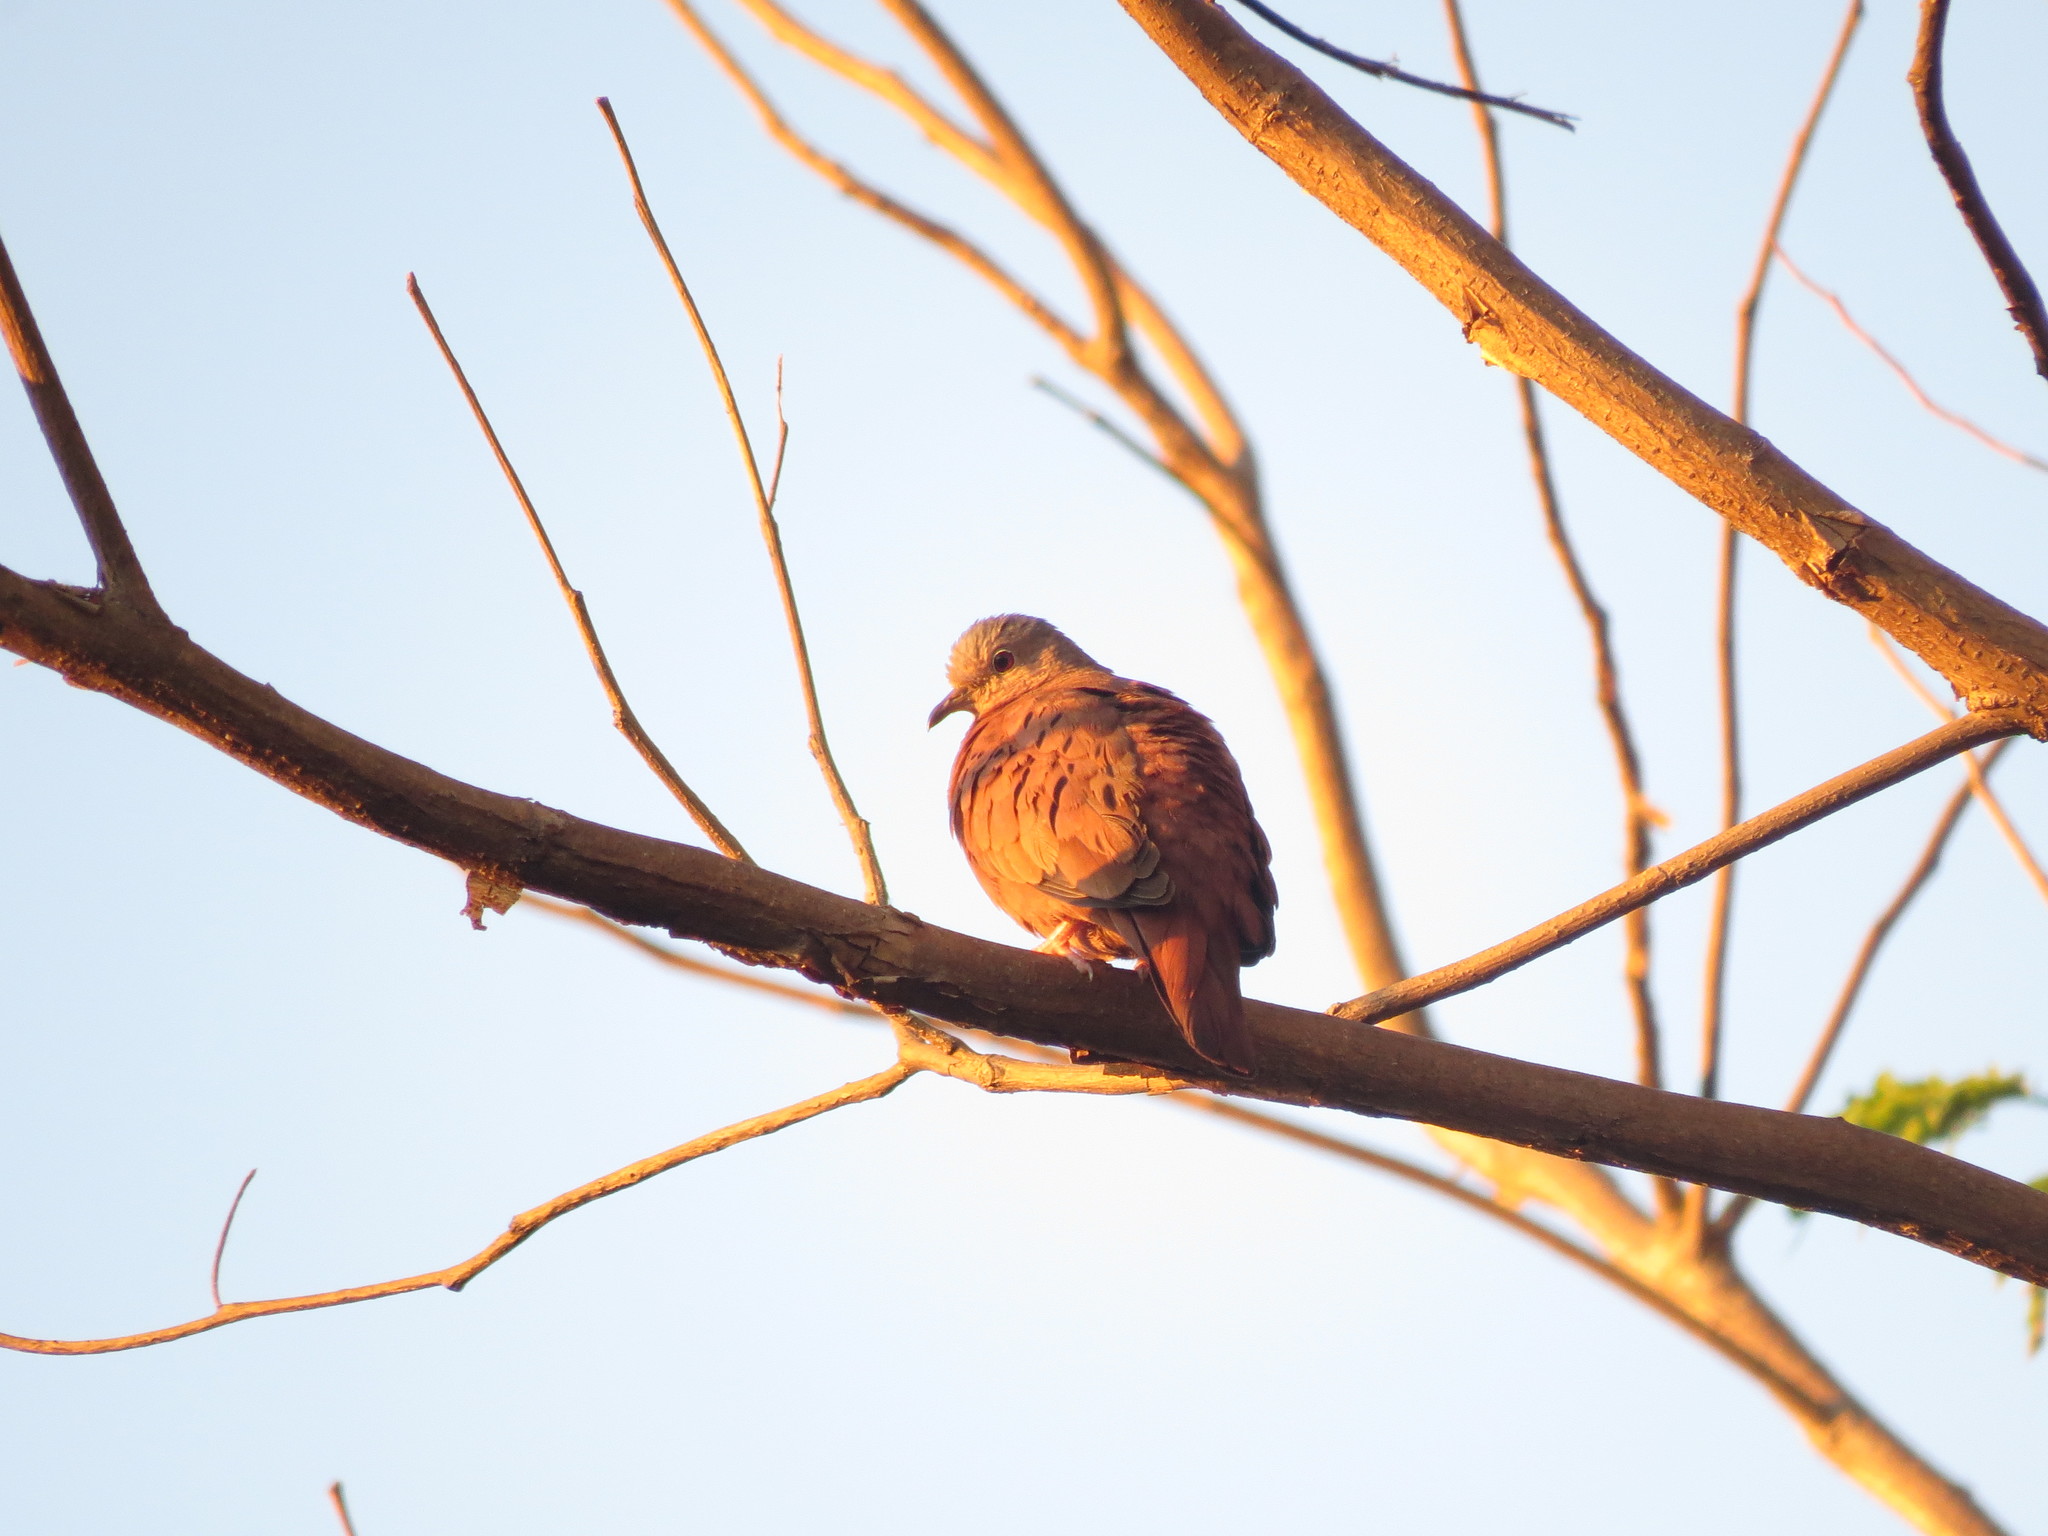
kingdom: Animalia
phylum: Chordata
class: Aves
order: Columbiformes
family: Columbidae
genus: Columbina
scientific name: Columbina talpacoti
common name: Ruddy ground dove
